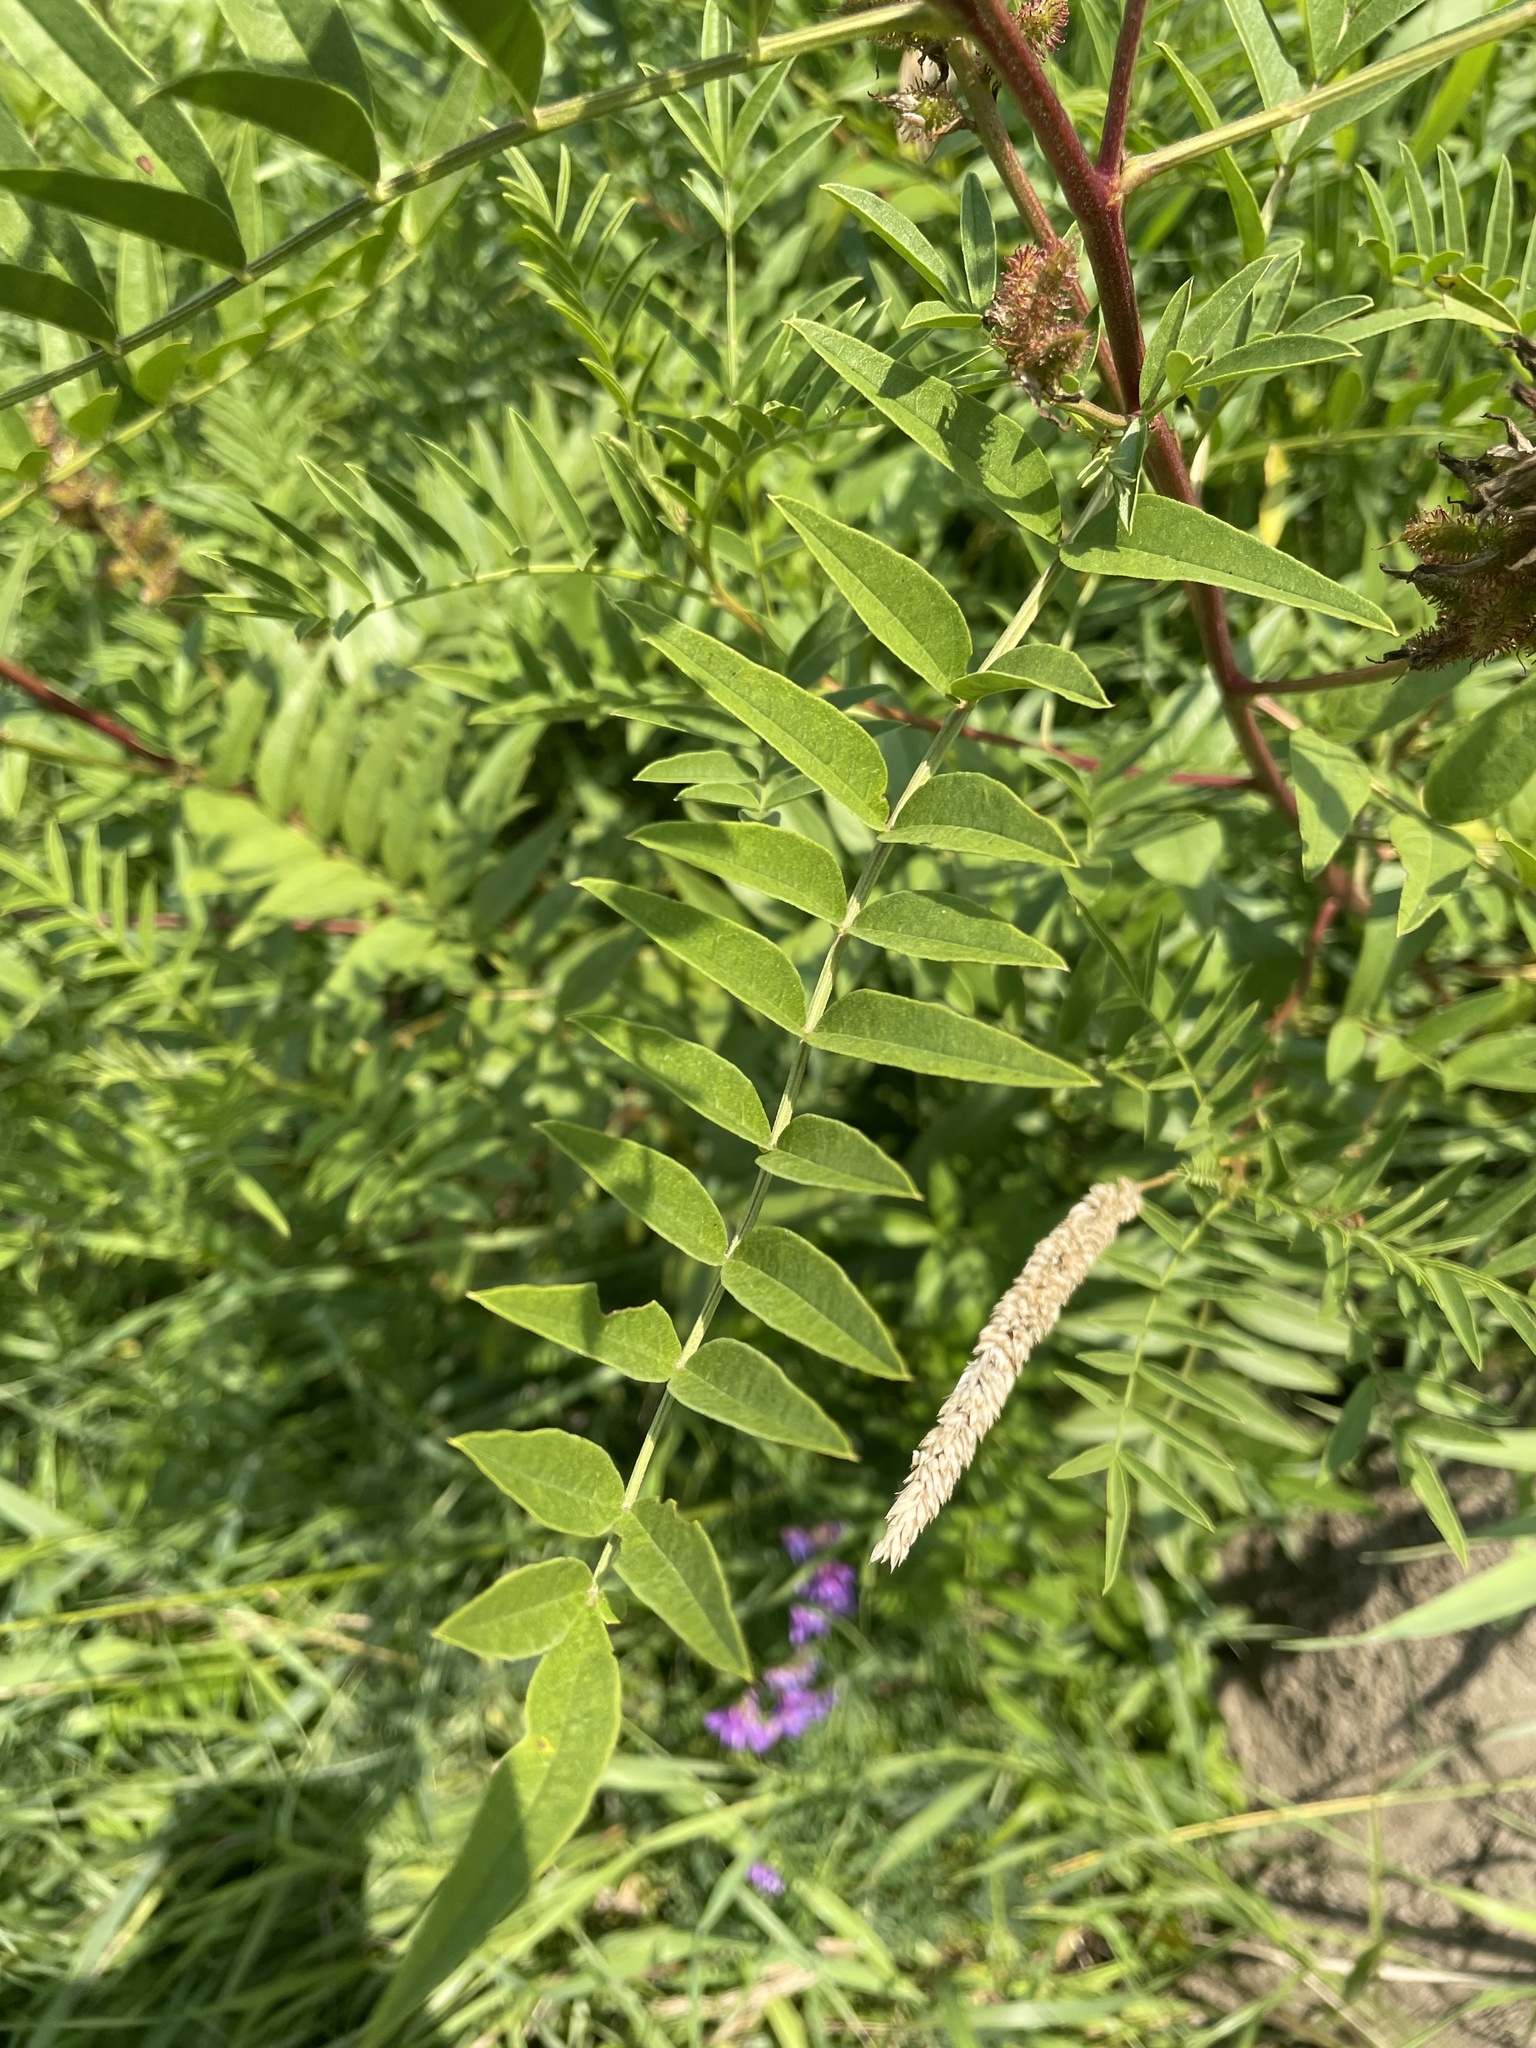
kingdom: Plantae
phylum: Tracheophyta
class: Magnoliopsida
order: Fabales
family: Fabaceae
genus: Glycyrrhiza
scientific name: Glycyrrhiza lepidota
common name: American liquorice
